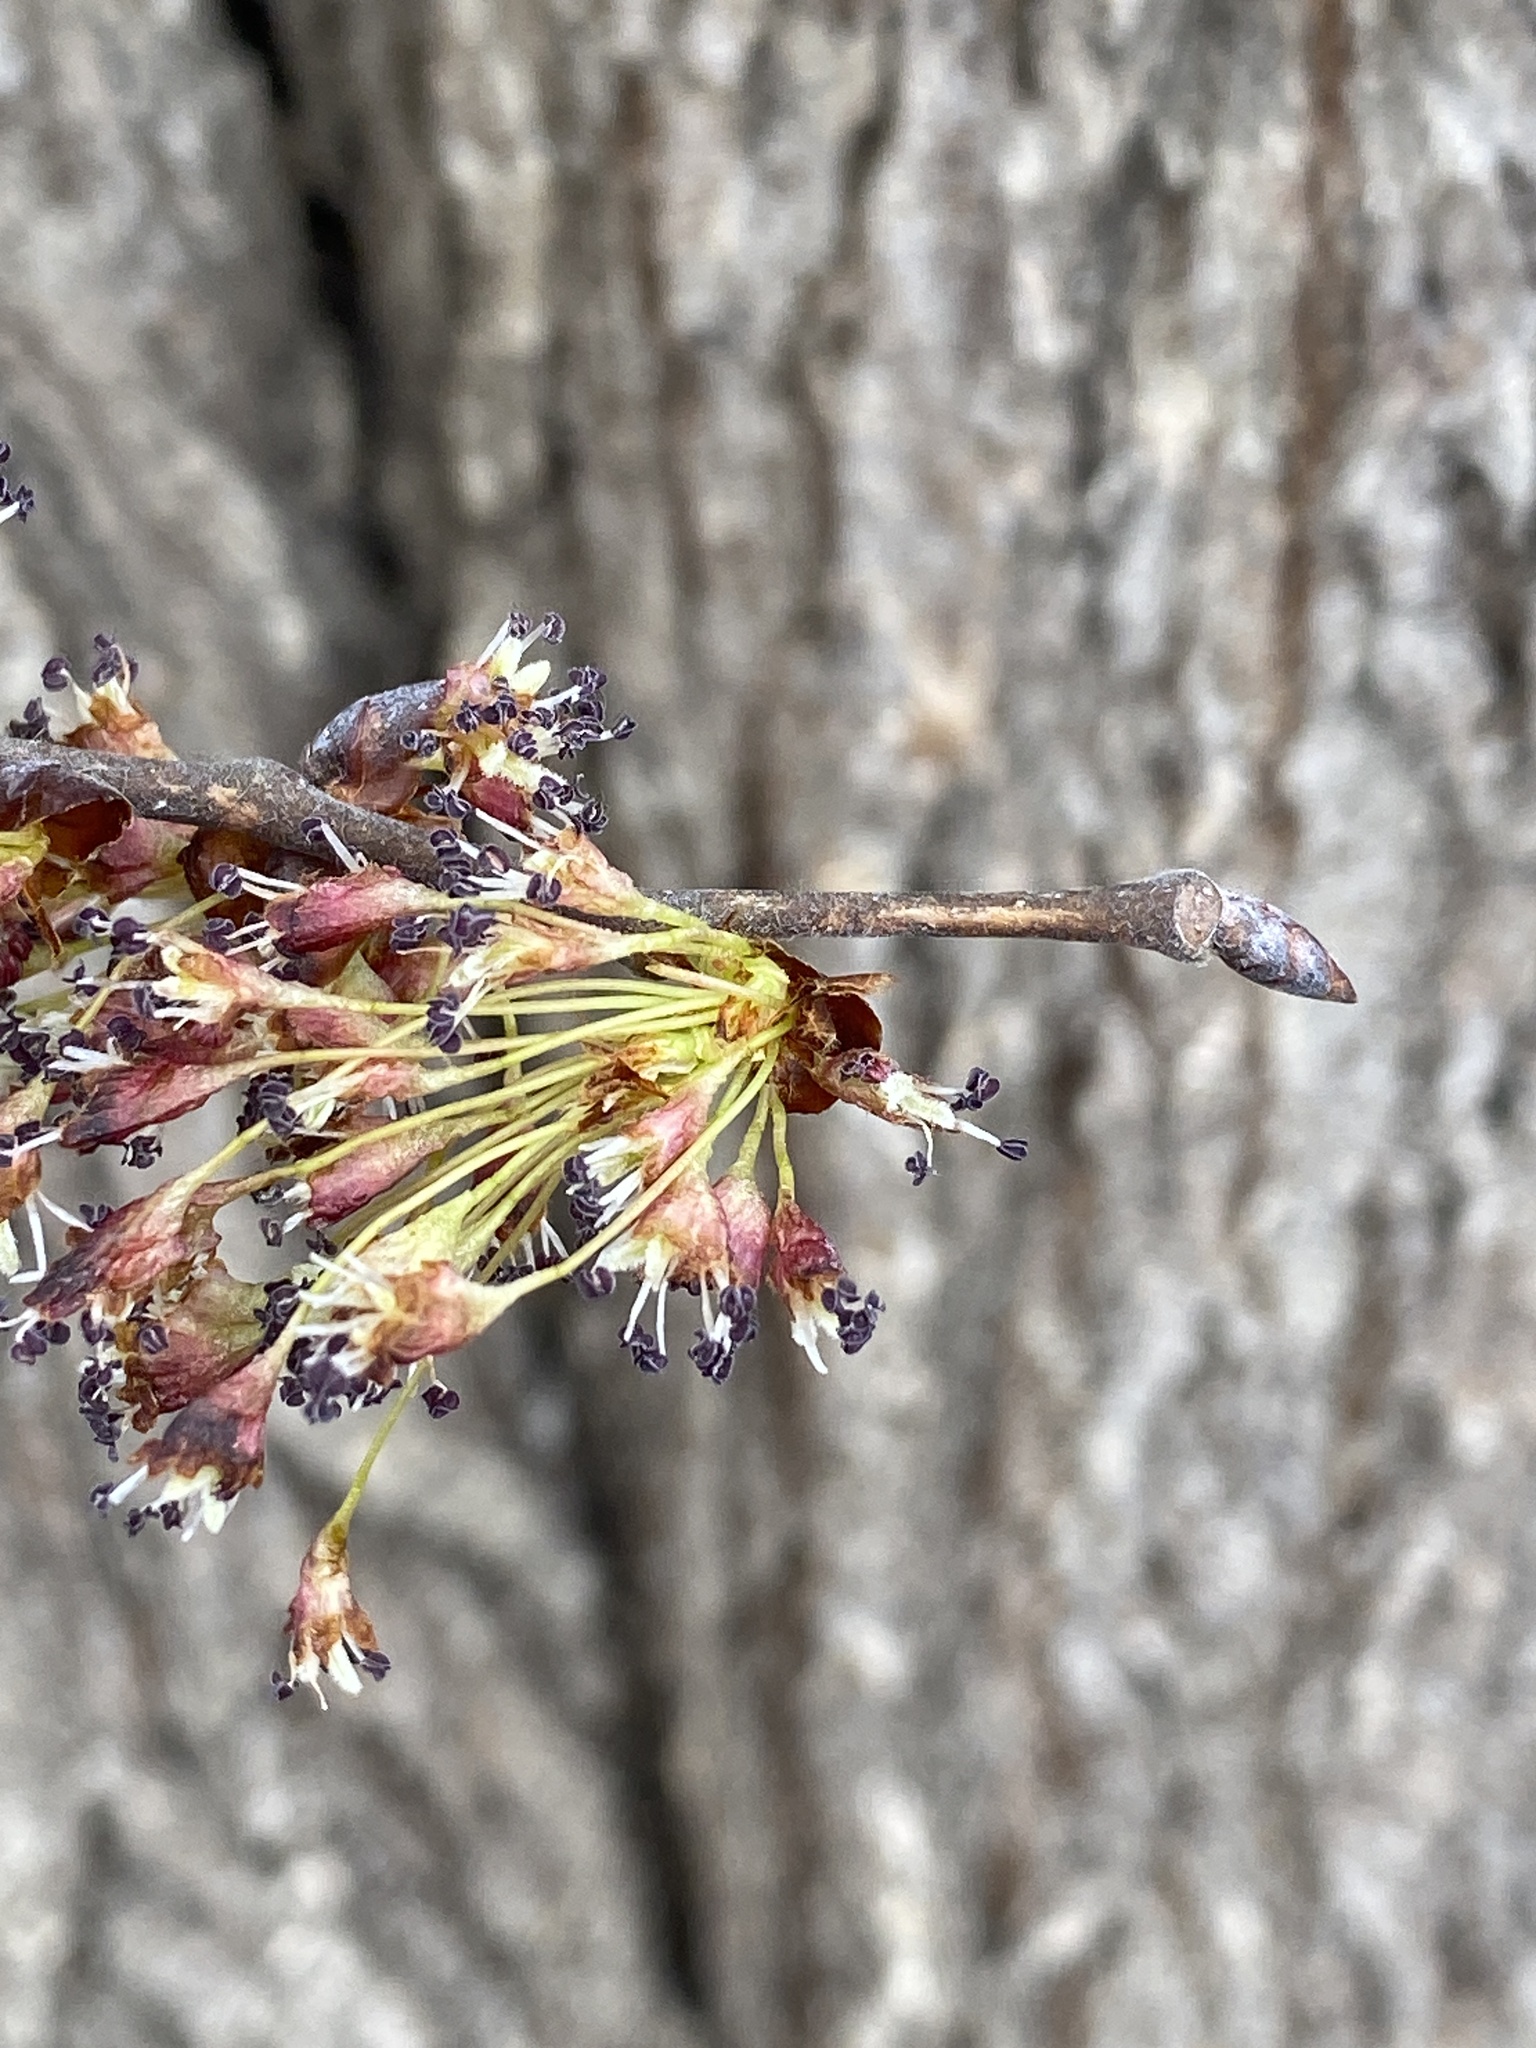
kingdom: Plantae
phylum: Tracheophyta
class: Magnoliopsida
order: Rosales
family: Ulmaceae
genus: Ulmus
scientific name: Ulmus americana
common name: American elm
